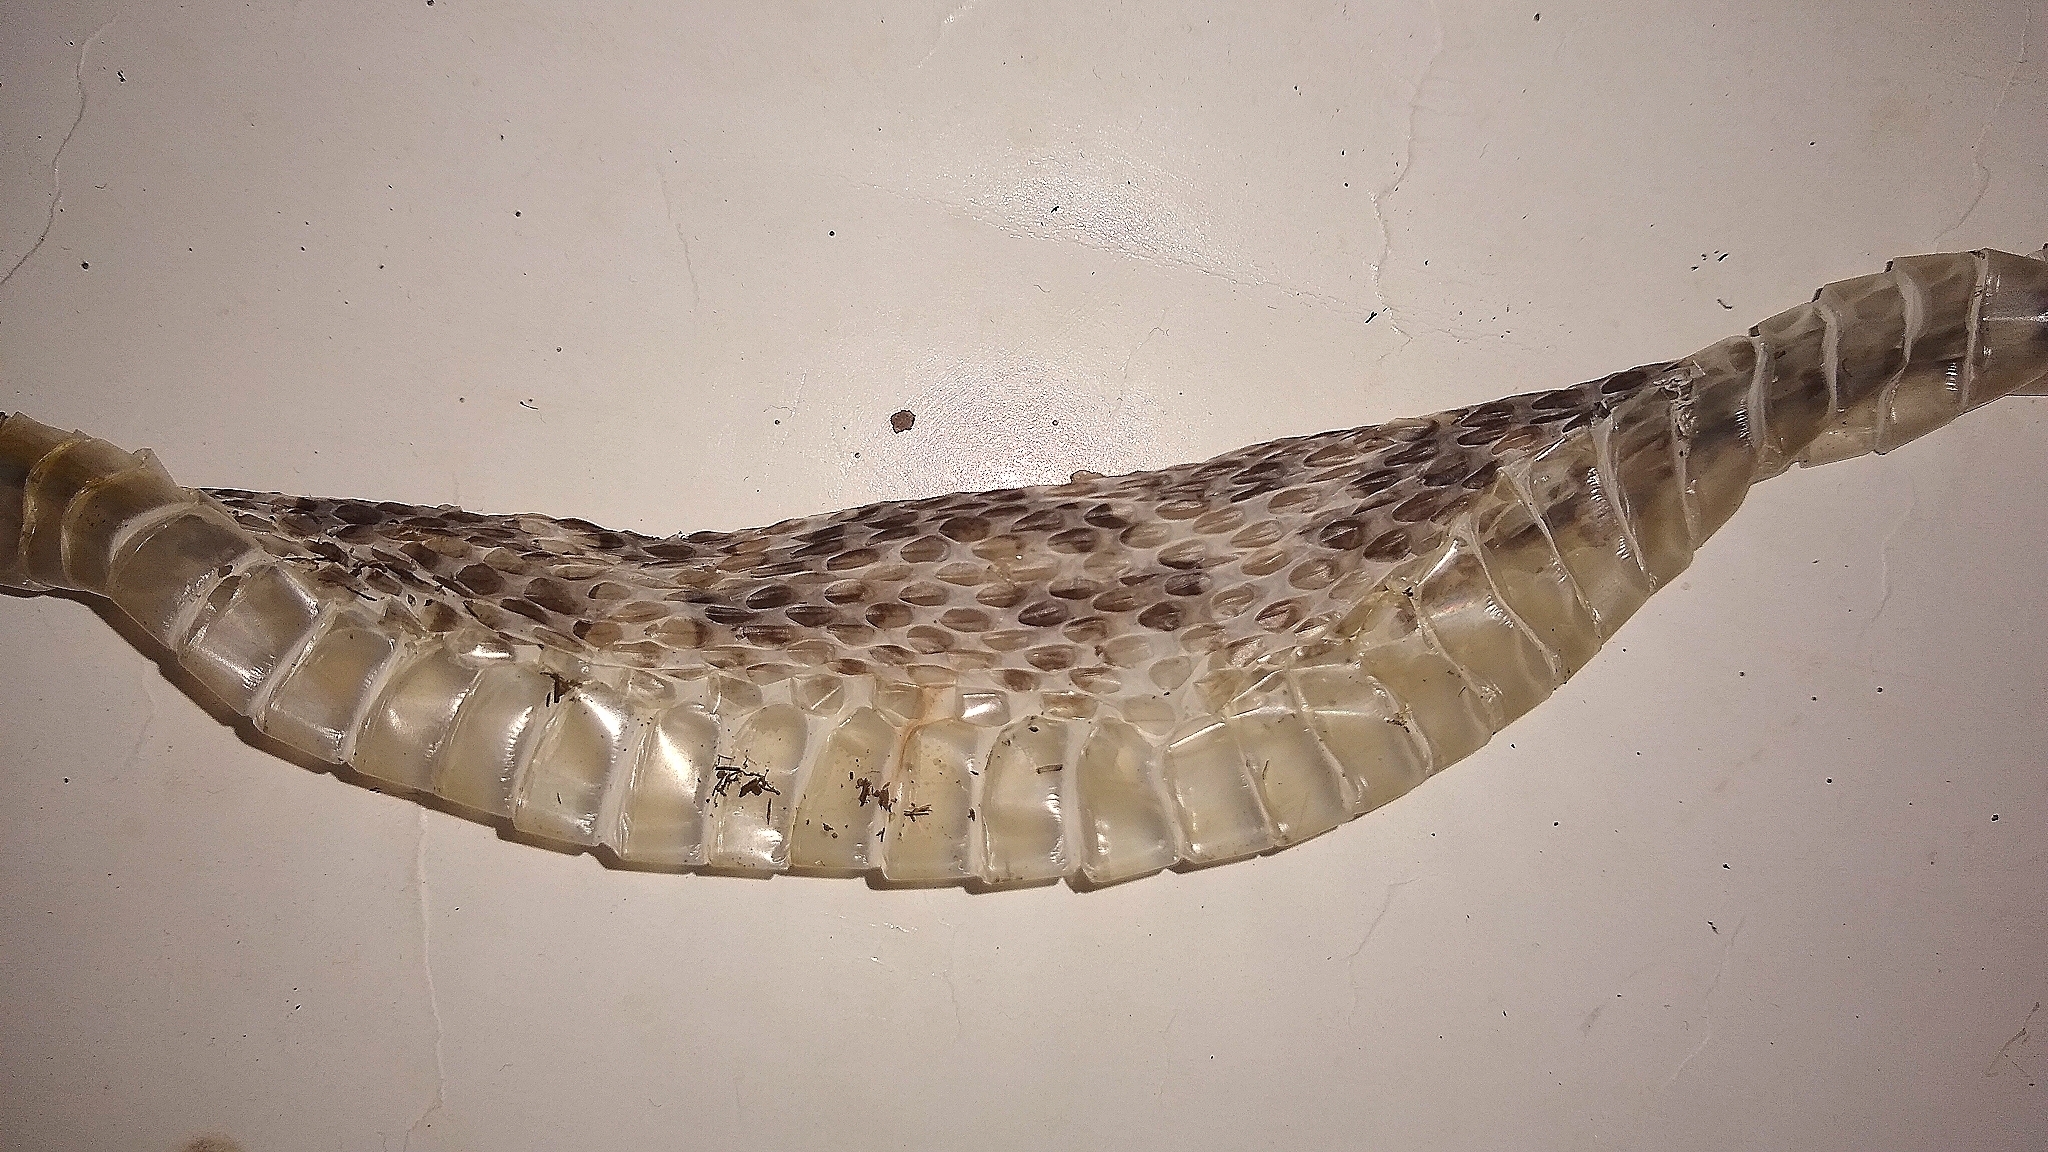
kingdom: Animalia
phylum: Chordata
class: Squamata
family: Viperidae
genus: Bothrops
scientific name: Bothrops diporus
